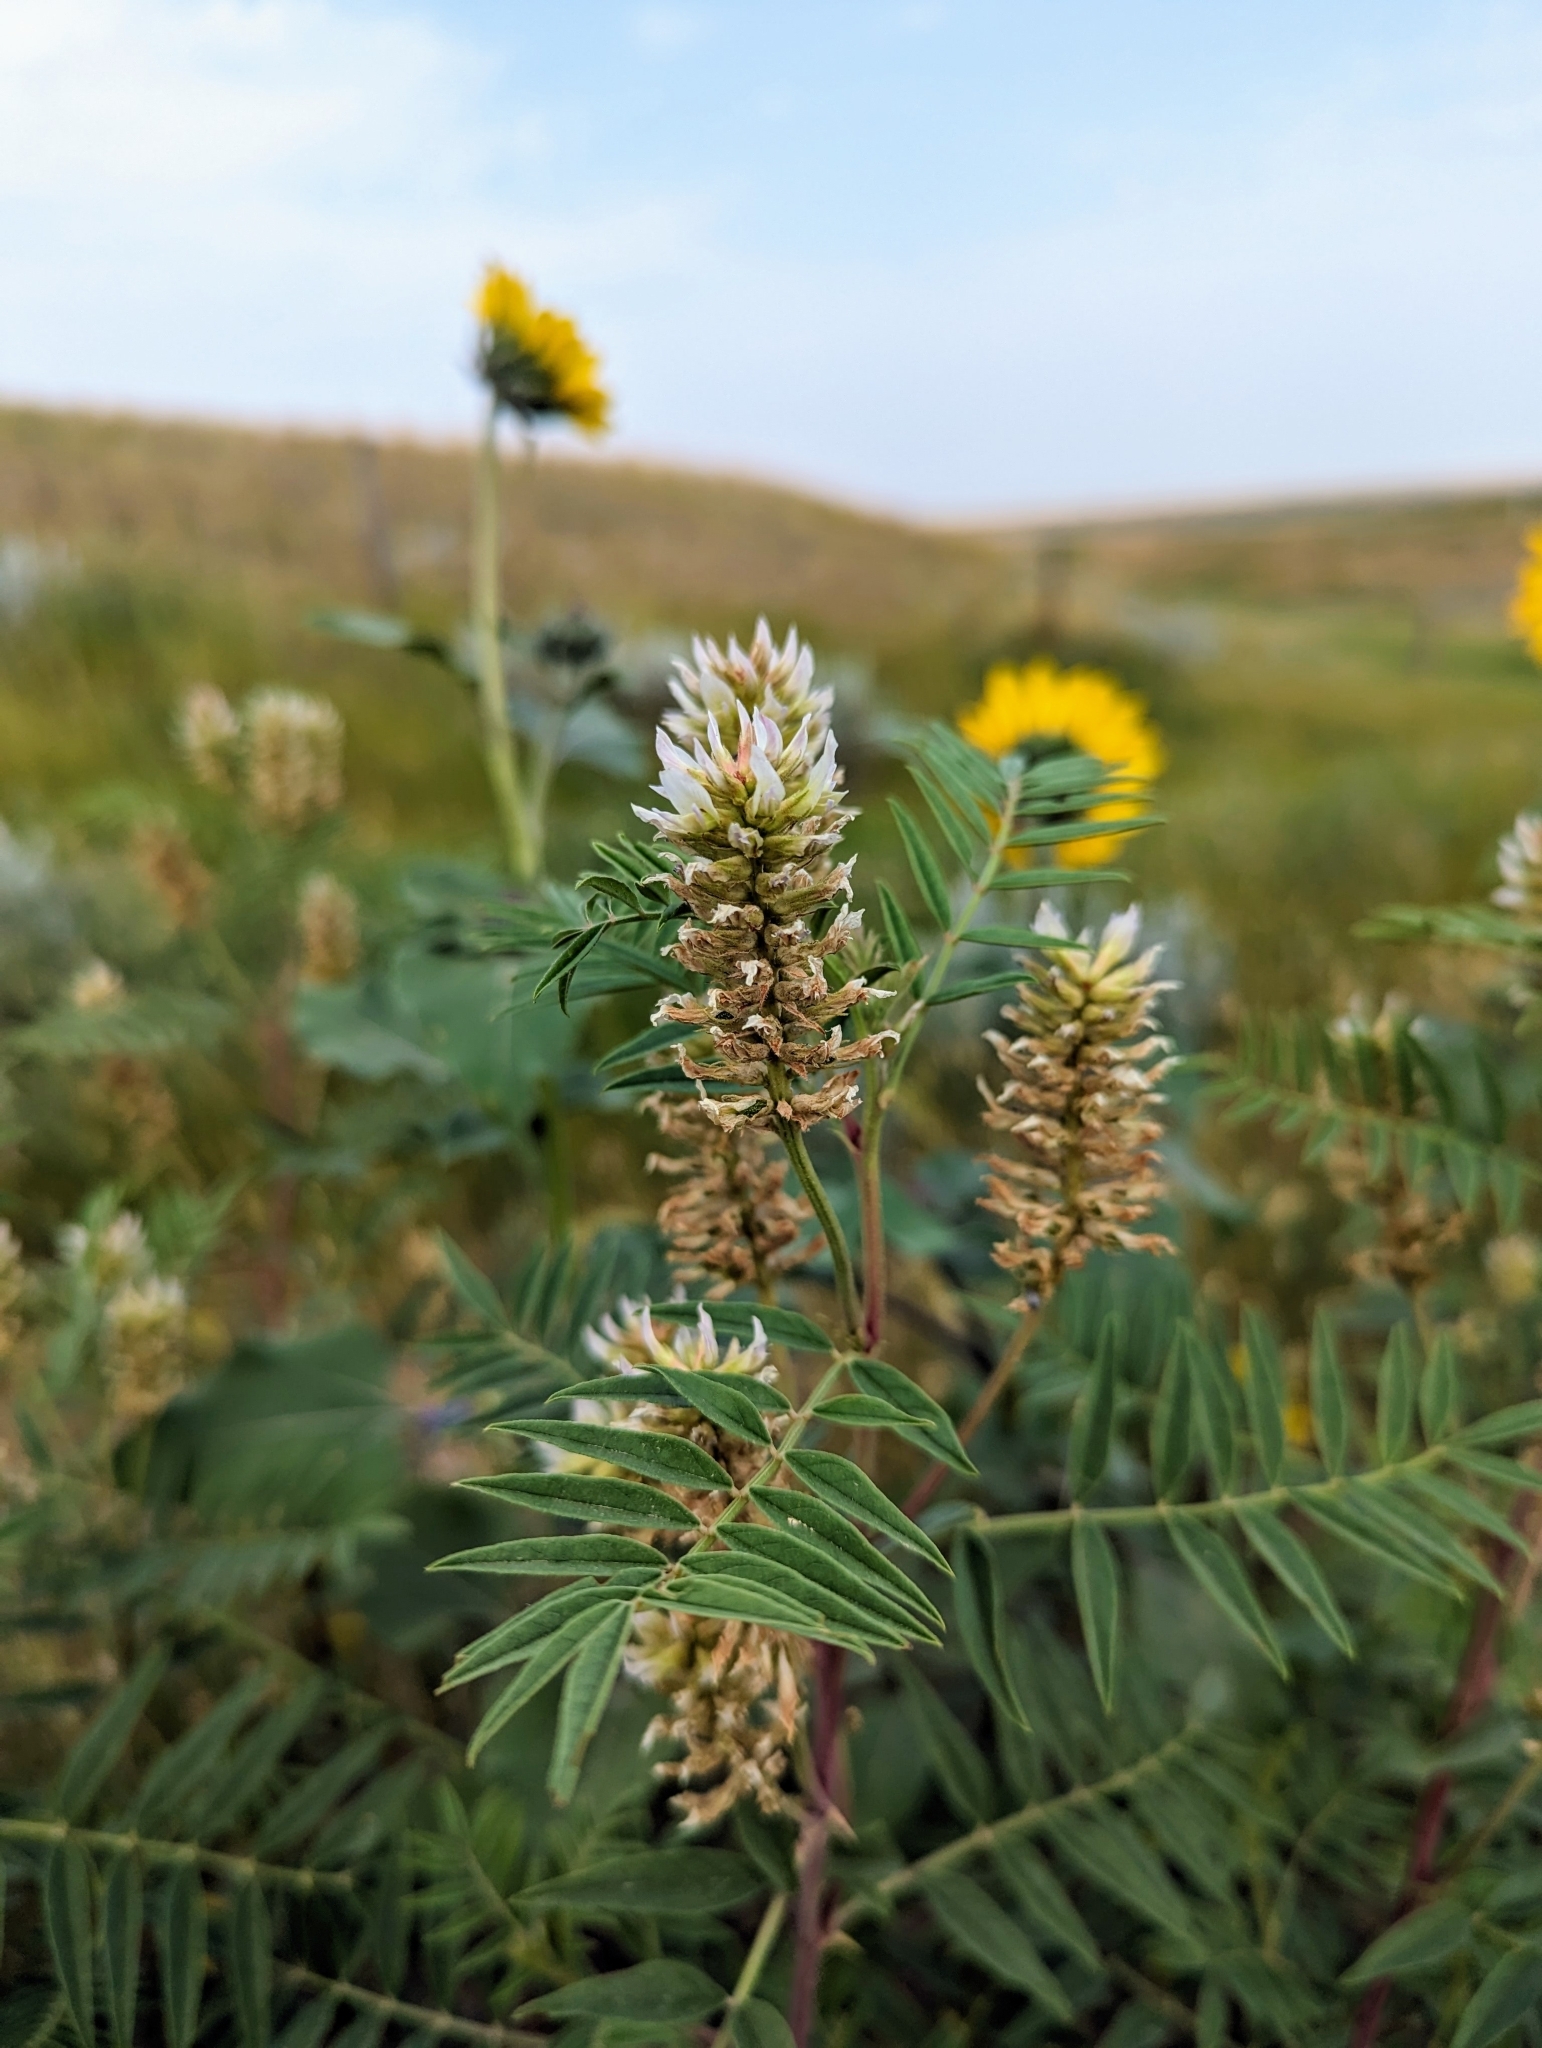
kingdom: Plantae
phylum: Tracheophyta
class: Magnoliopsida
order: Fabales
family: Fabaceae
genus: Glycyrrhiza
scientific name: Glycyrrhiza lepidota
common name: American liquorice
